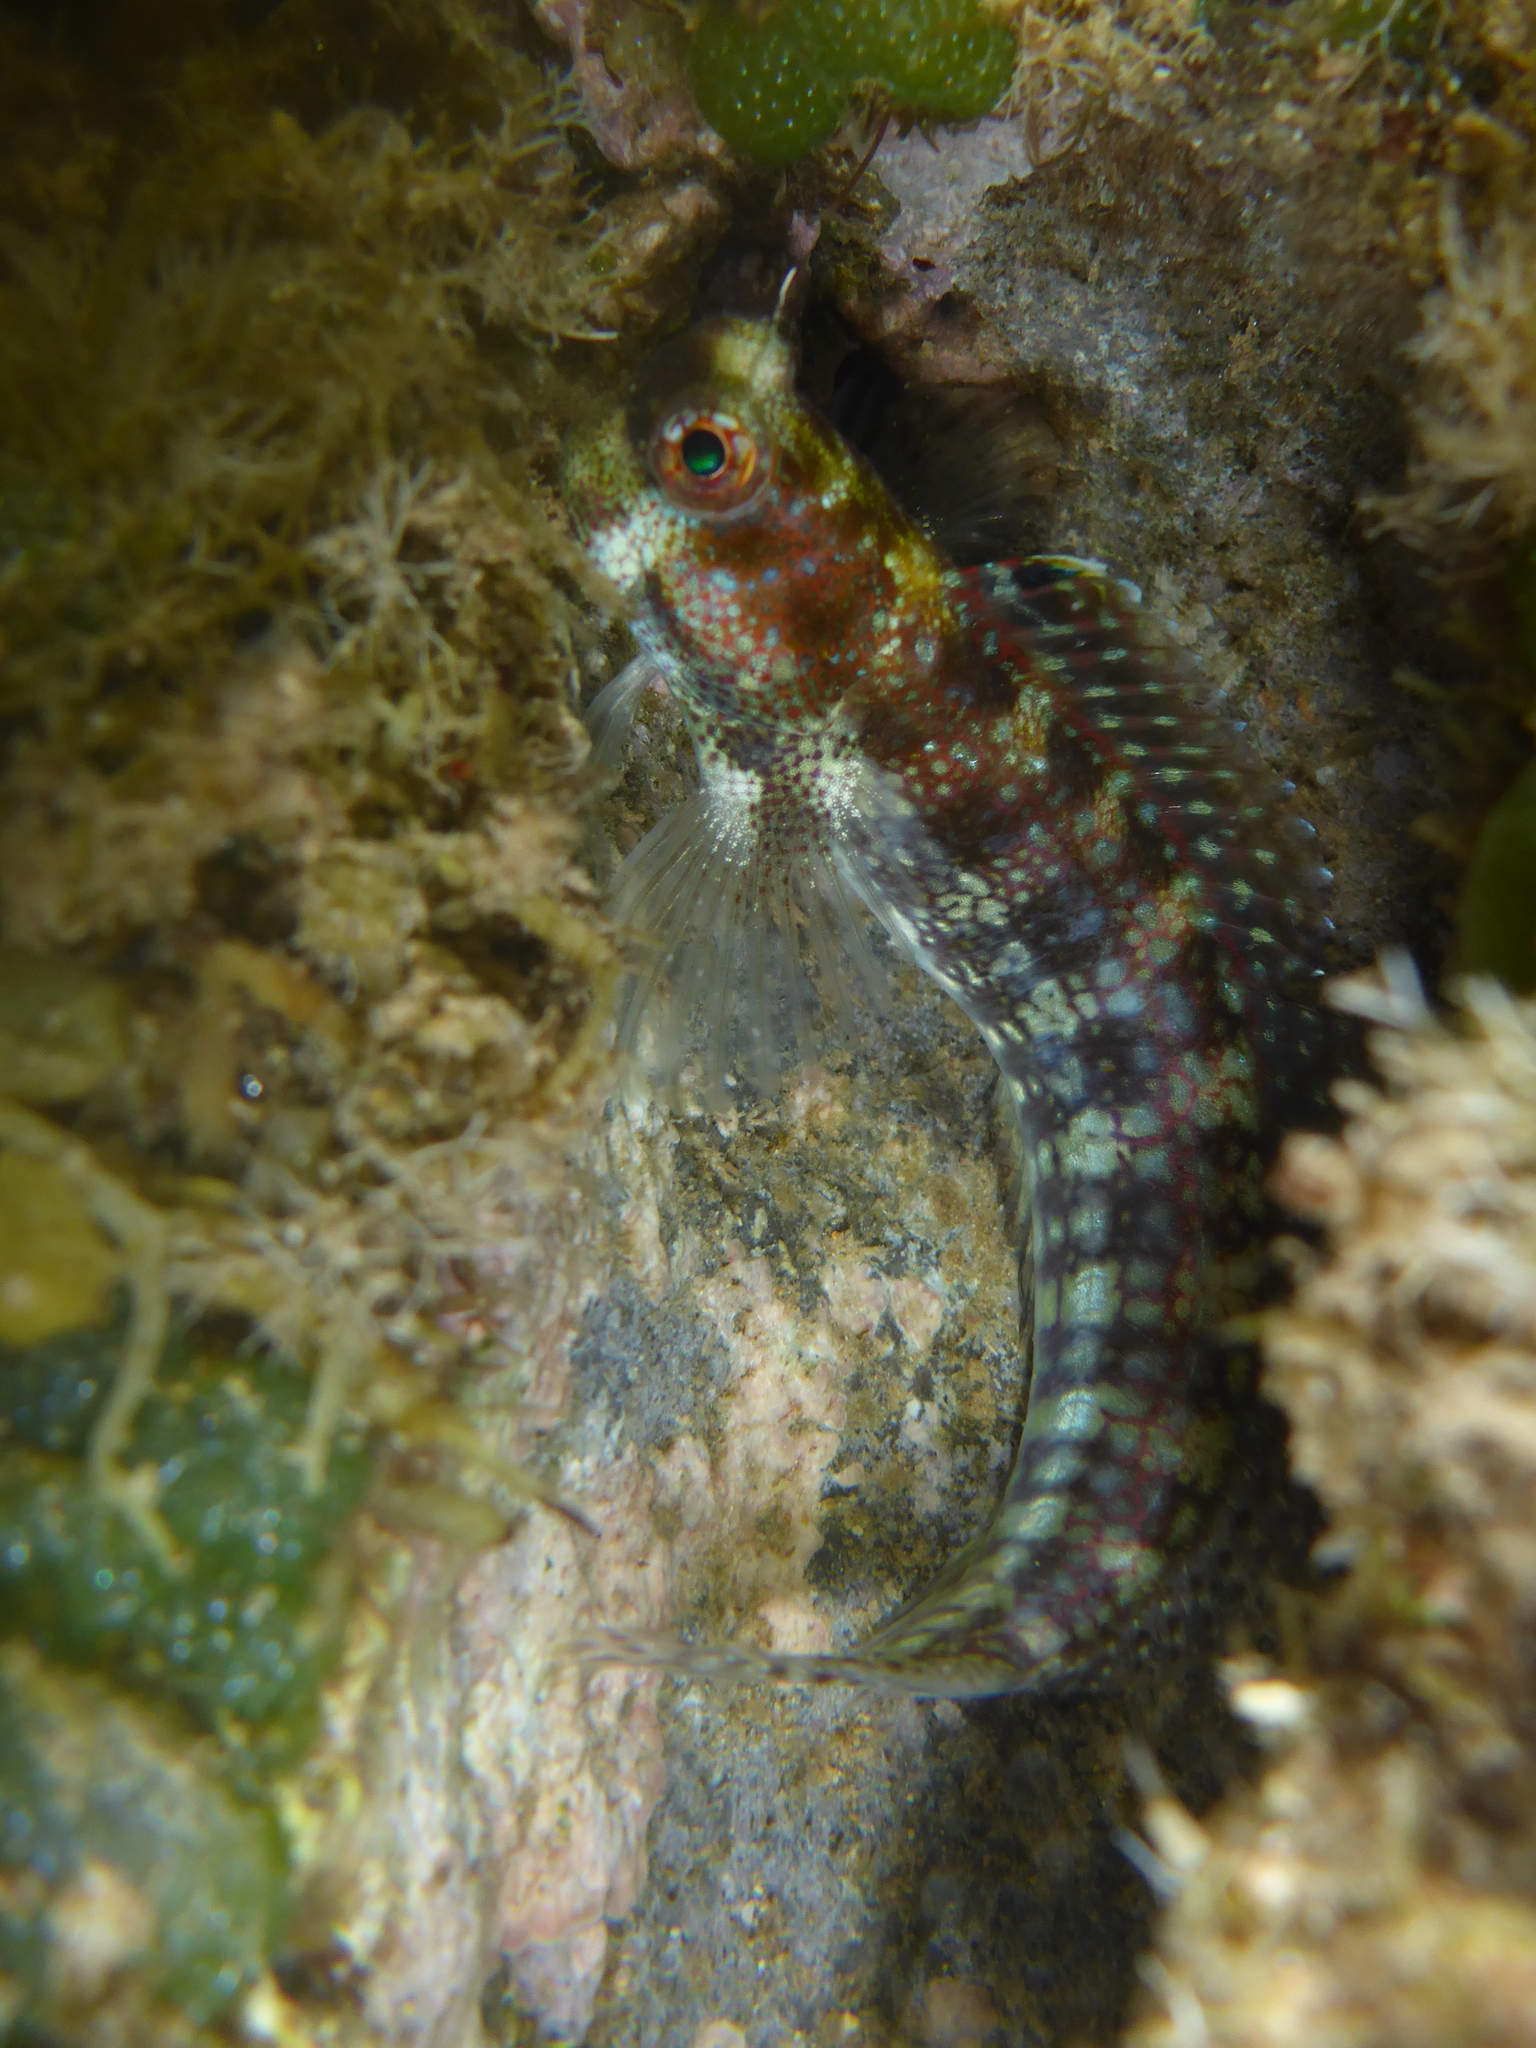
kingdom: Animalia
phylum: Chordata
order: Perciformes
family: Blenniidae
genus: Blenniella
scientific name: Blenniella gibbifrons
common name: Picture rockskipper
